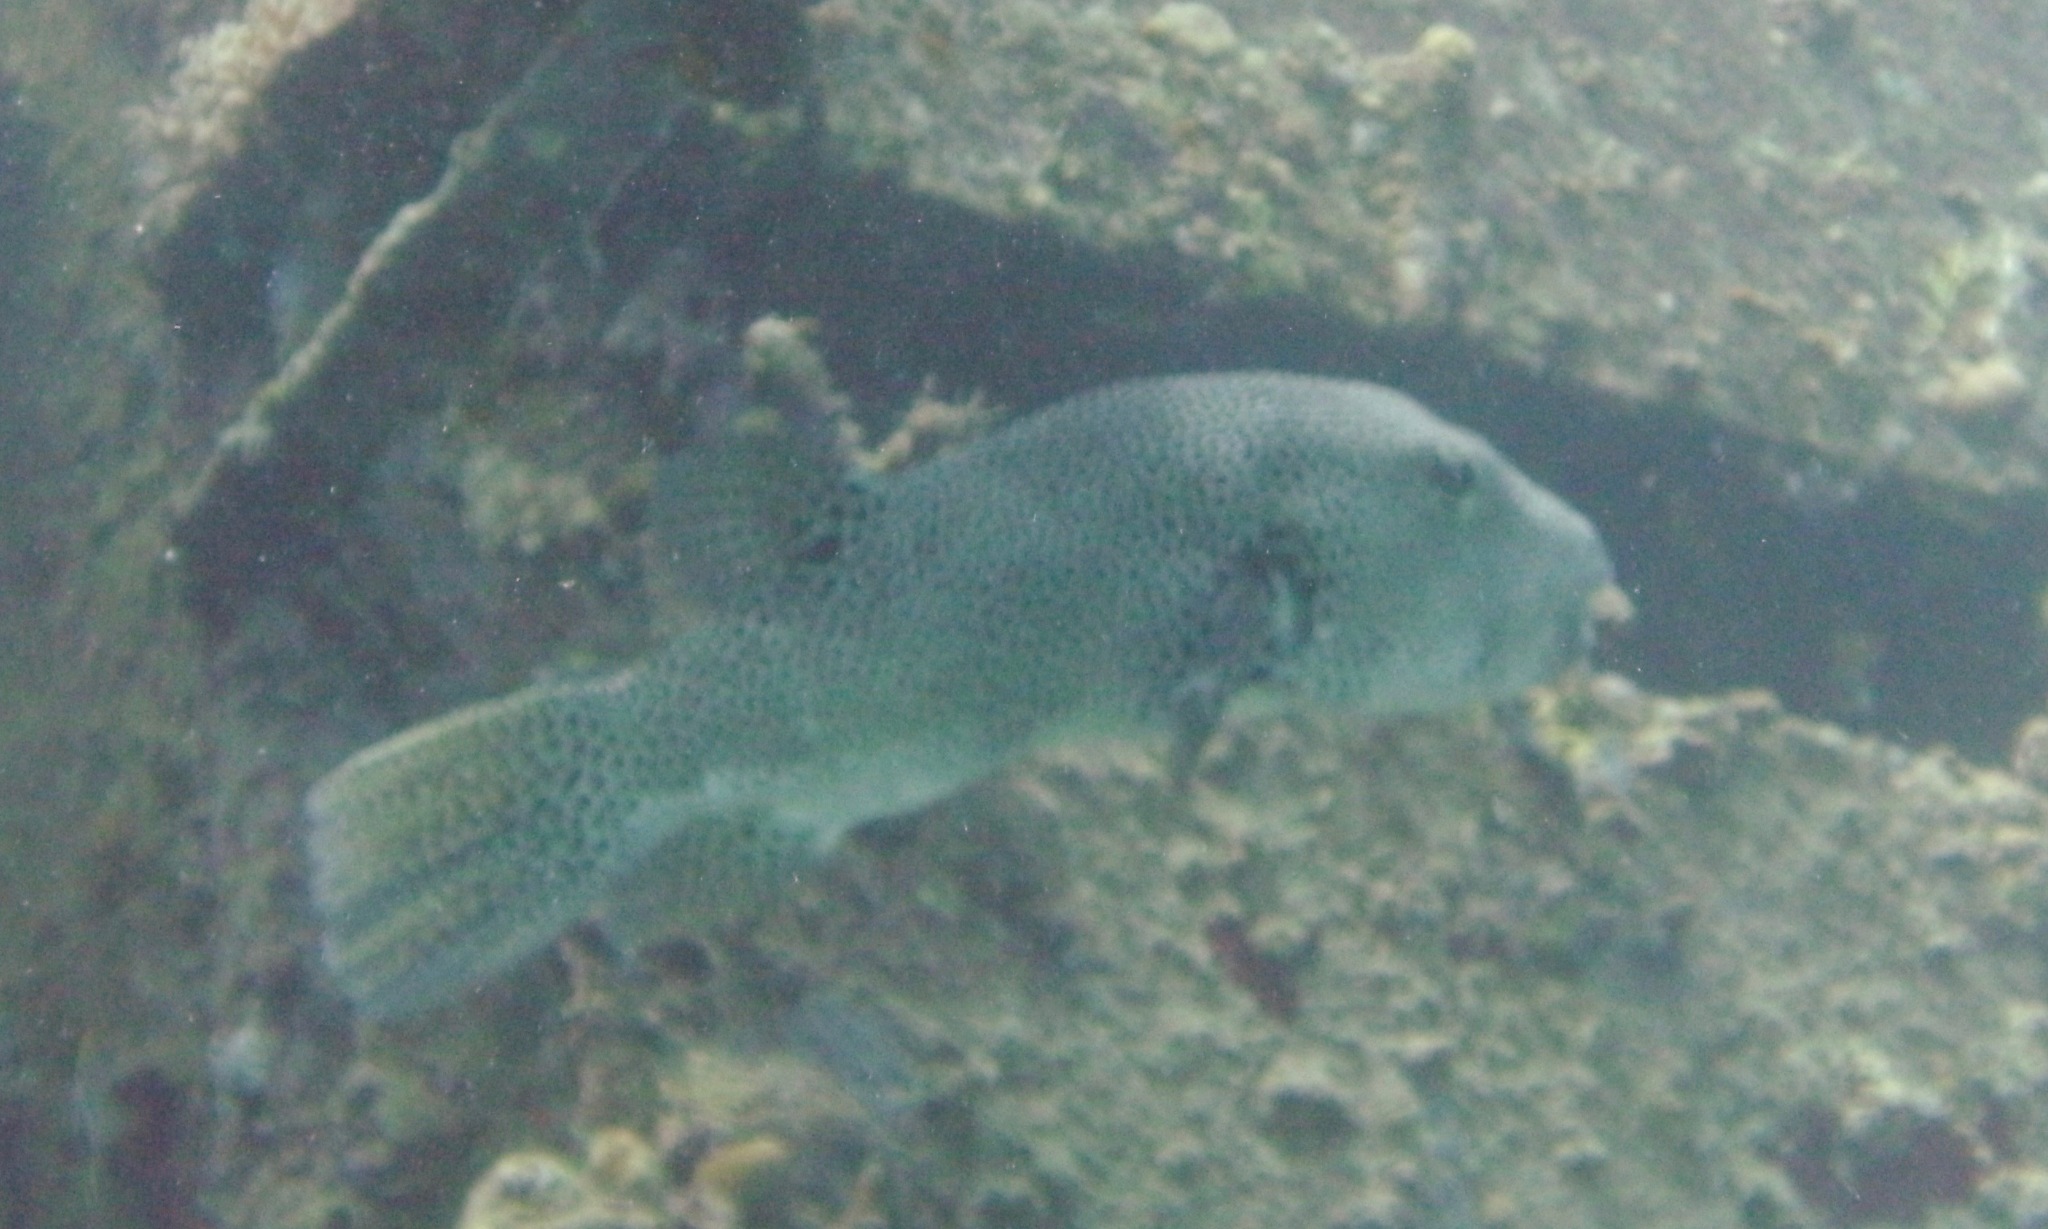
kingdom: Animalia
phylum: Chordata
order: Tetraodontiformes
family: Tetraodontidae
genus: Arothron
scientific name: Arothron stellatus
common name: Star blaasop
